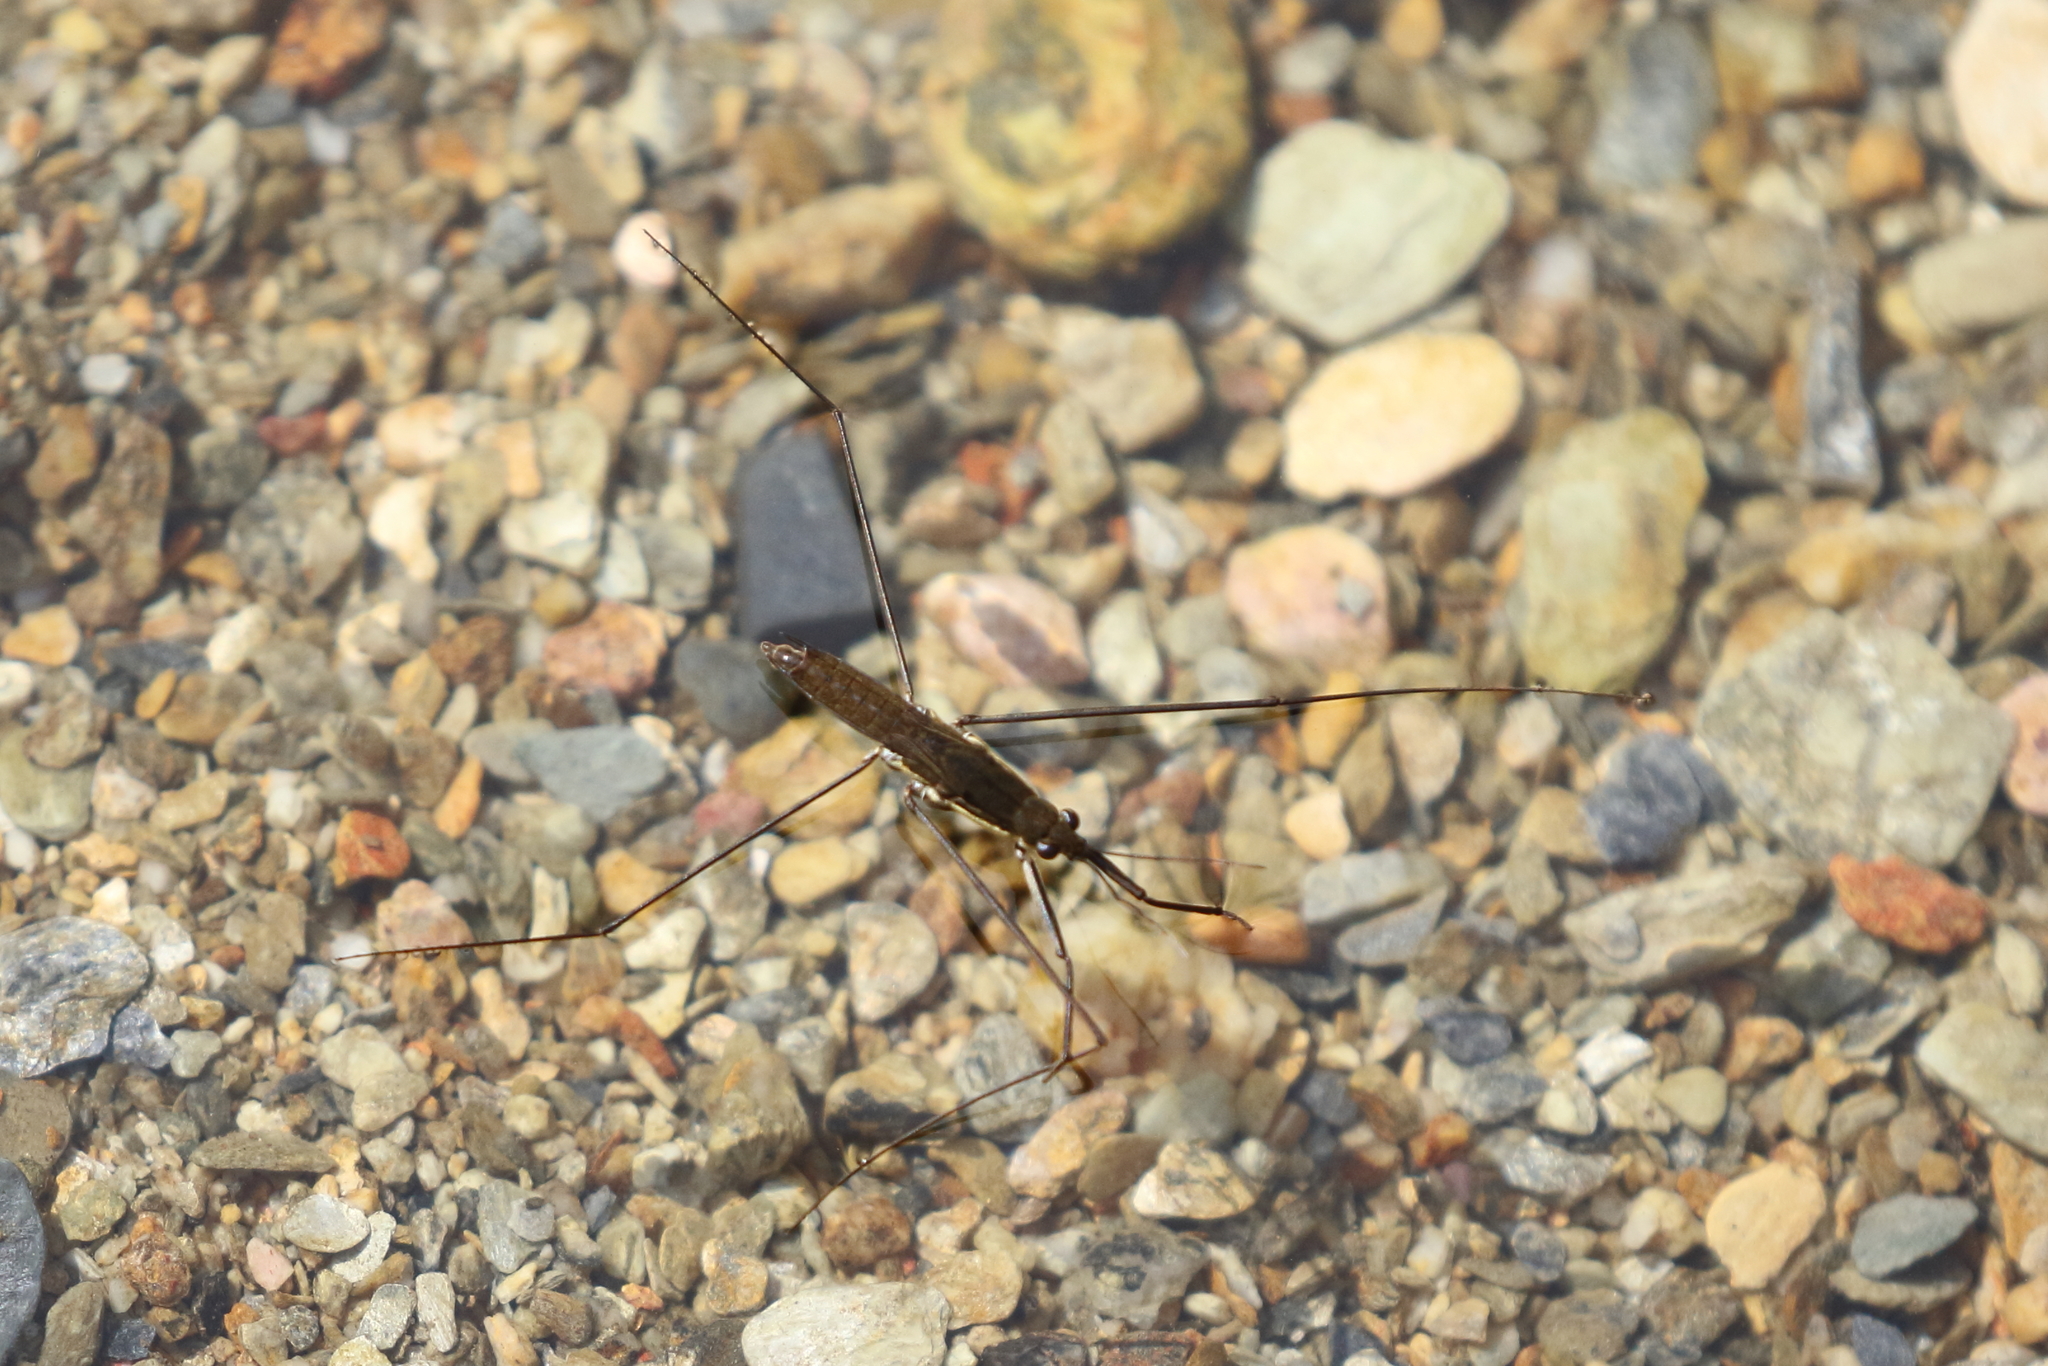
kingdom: Animalia
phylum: Arthropoda
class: Insecta
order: Hemiptera
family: Gerridae
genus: Aquarius
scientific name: Aquarius paludum
